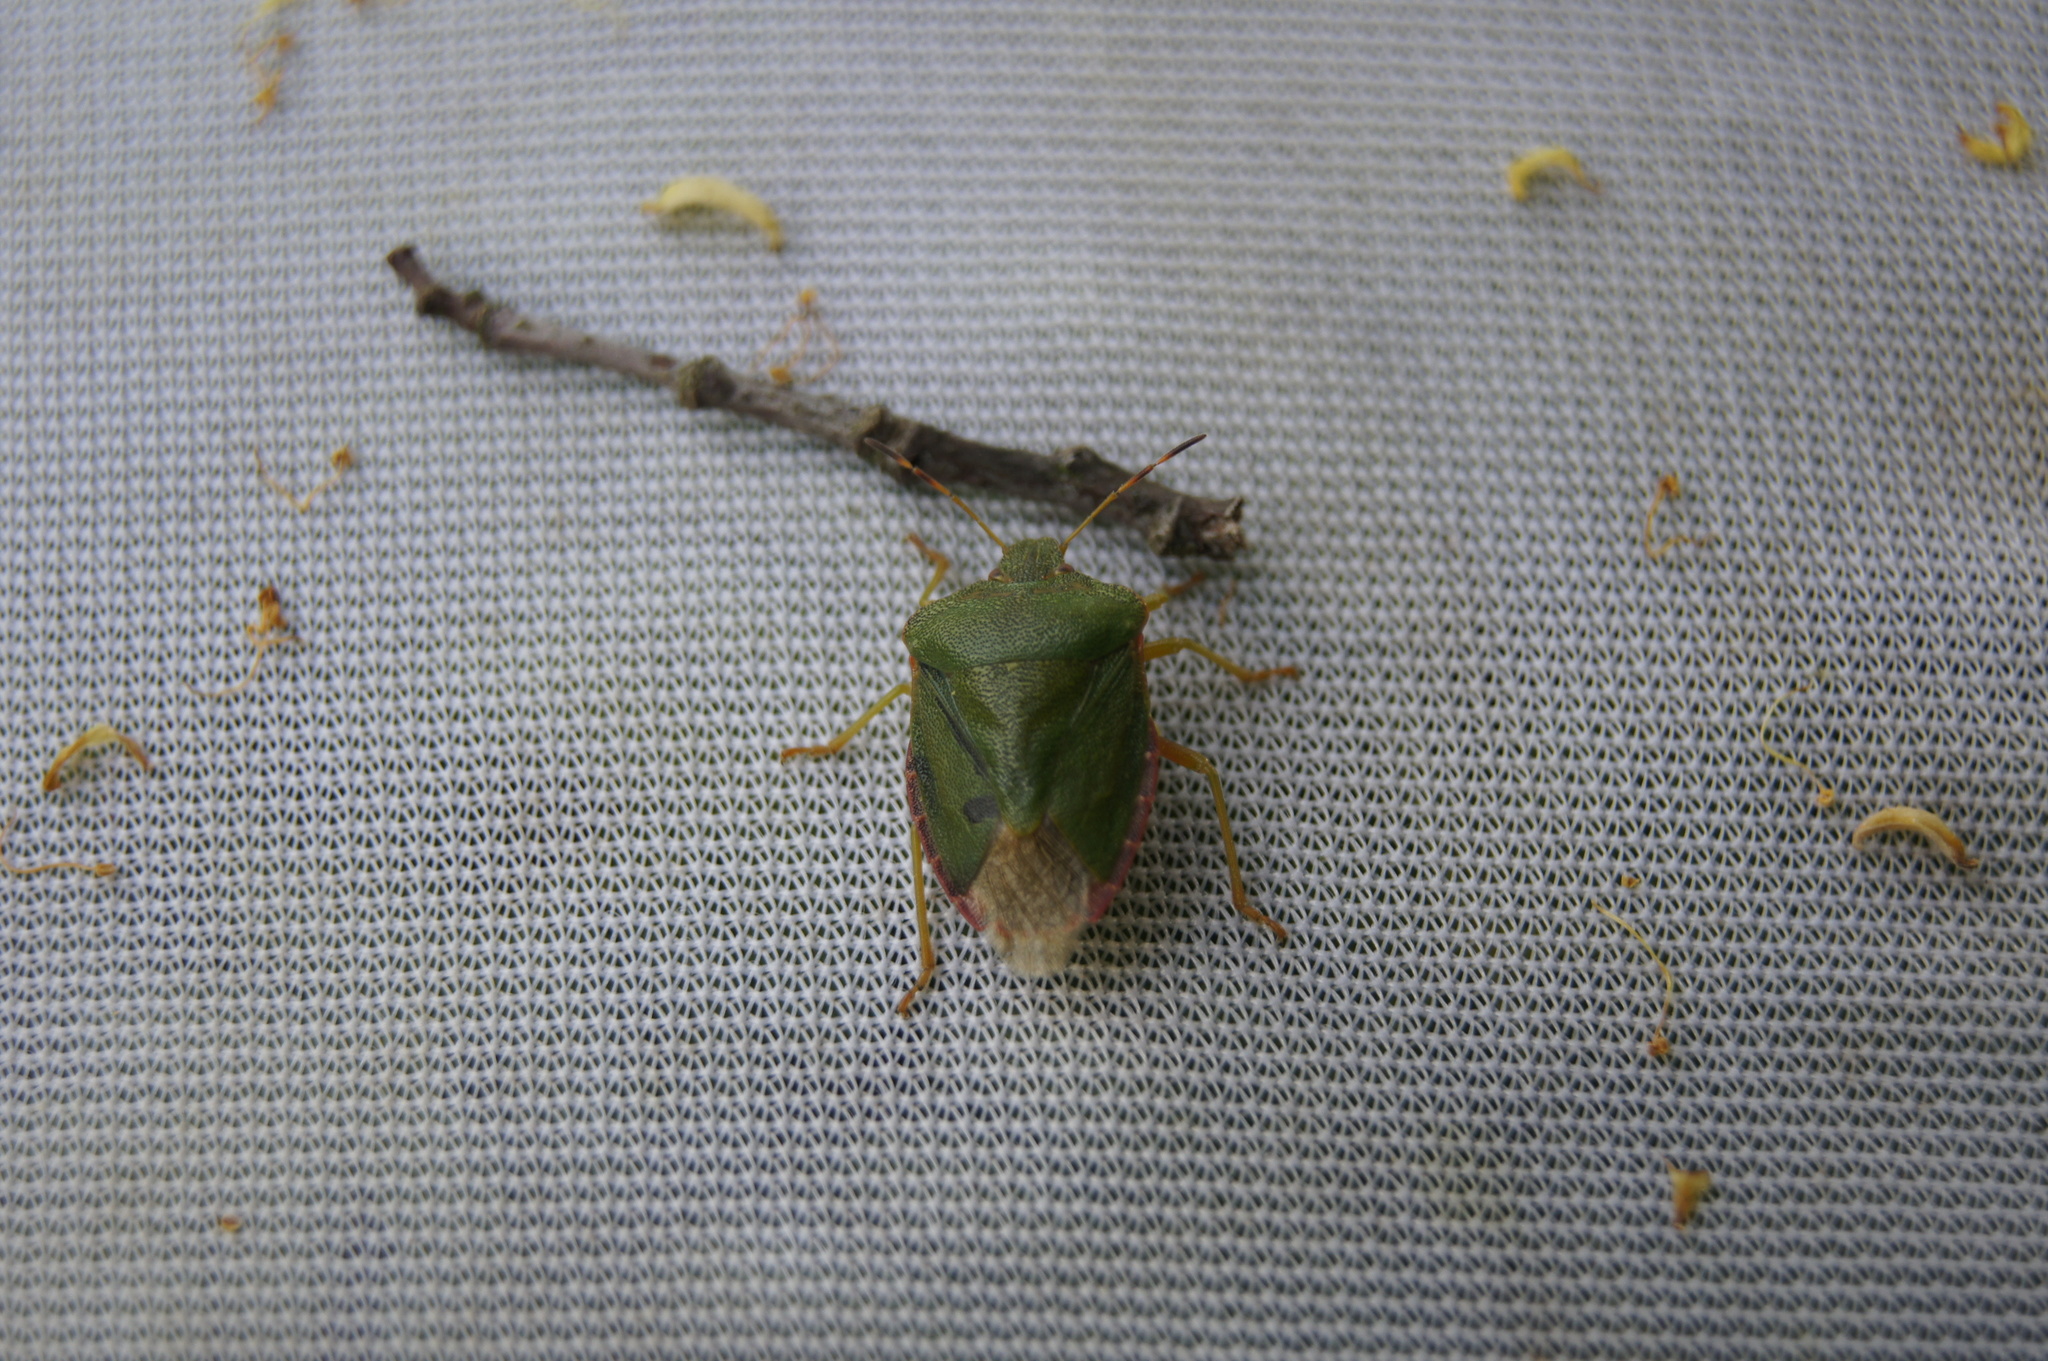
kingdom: Animalia
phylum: Arthropoda
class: Insecta
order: Hemiptera
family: Pentatomidae
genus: Palomena
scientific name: Palomena prasina
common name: Green shieldbug
